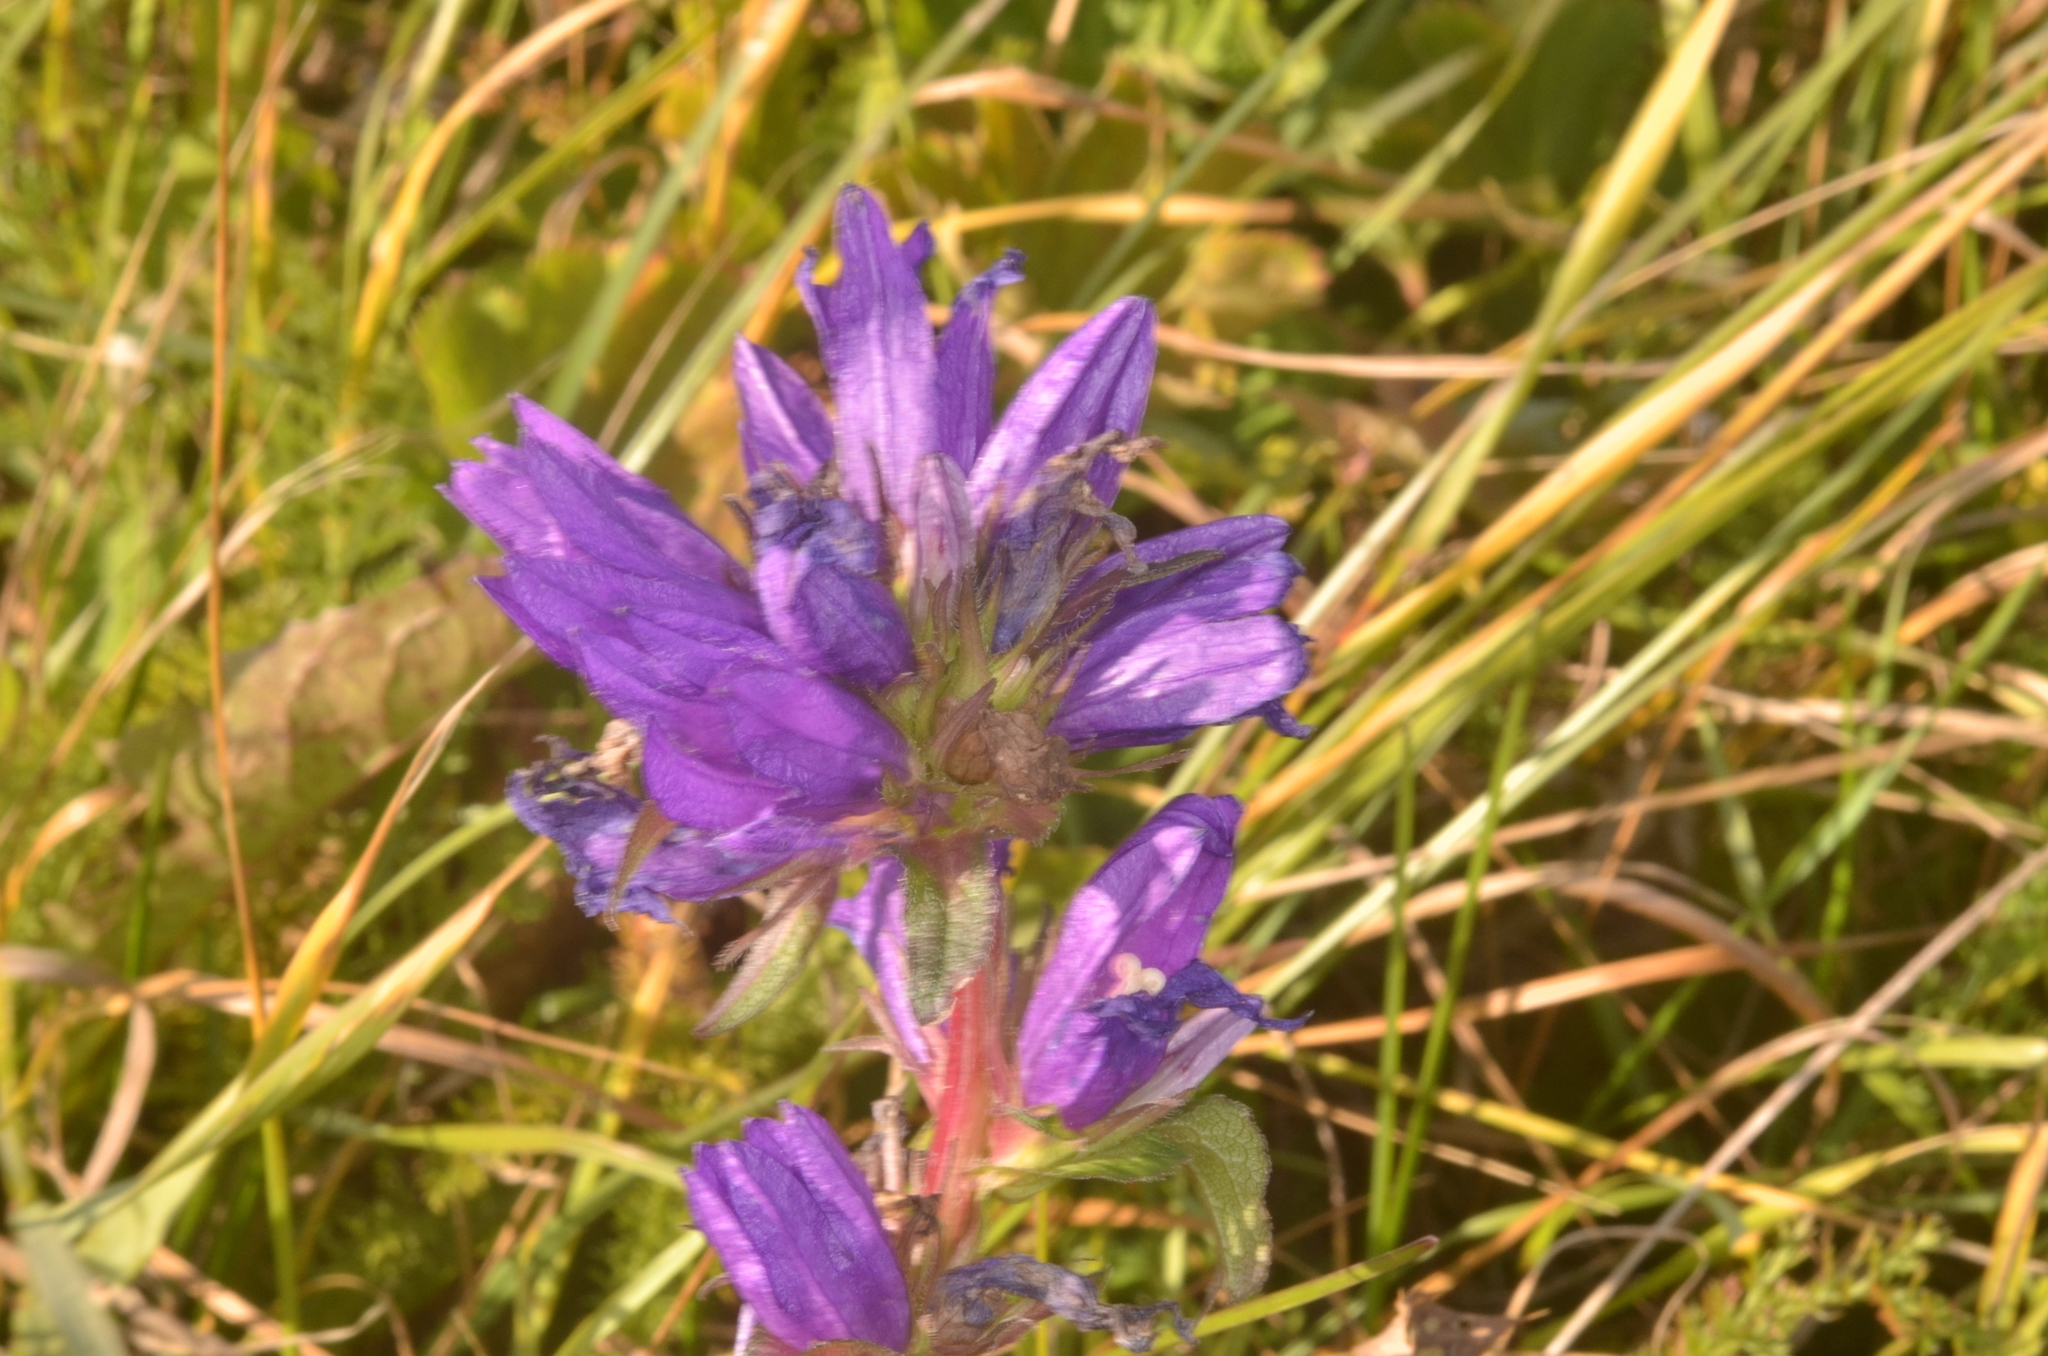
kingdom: Plantae
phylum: Tracheophyta
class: Magnoliopsida
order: Asterales
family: Campanulaceae
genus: Campanula
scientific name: Campanula glomerata
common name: Clustered bellflower
